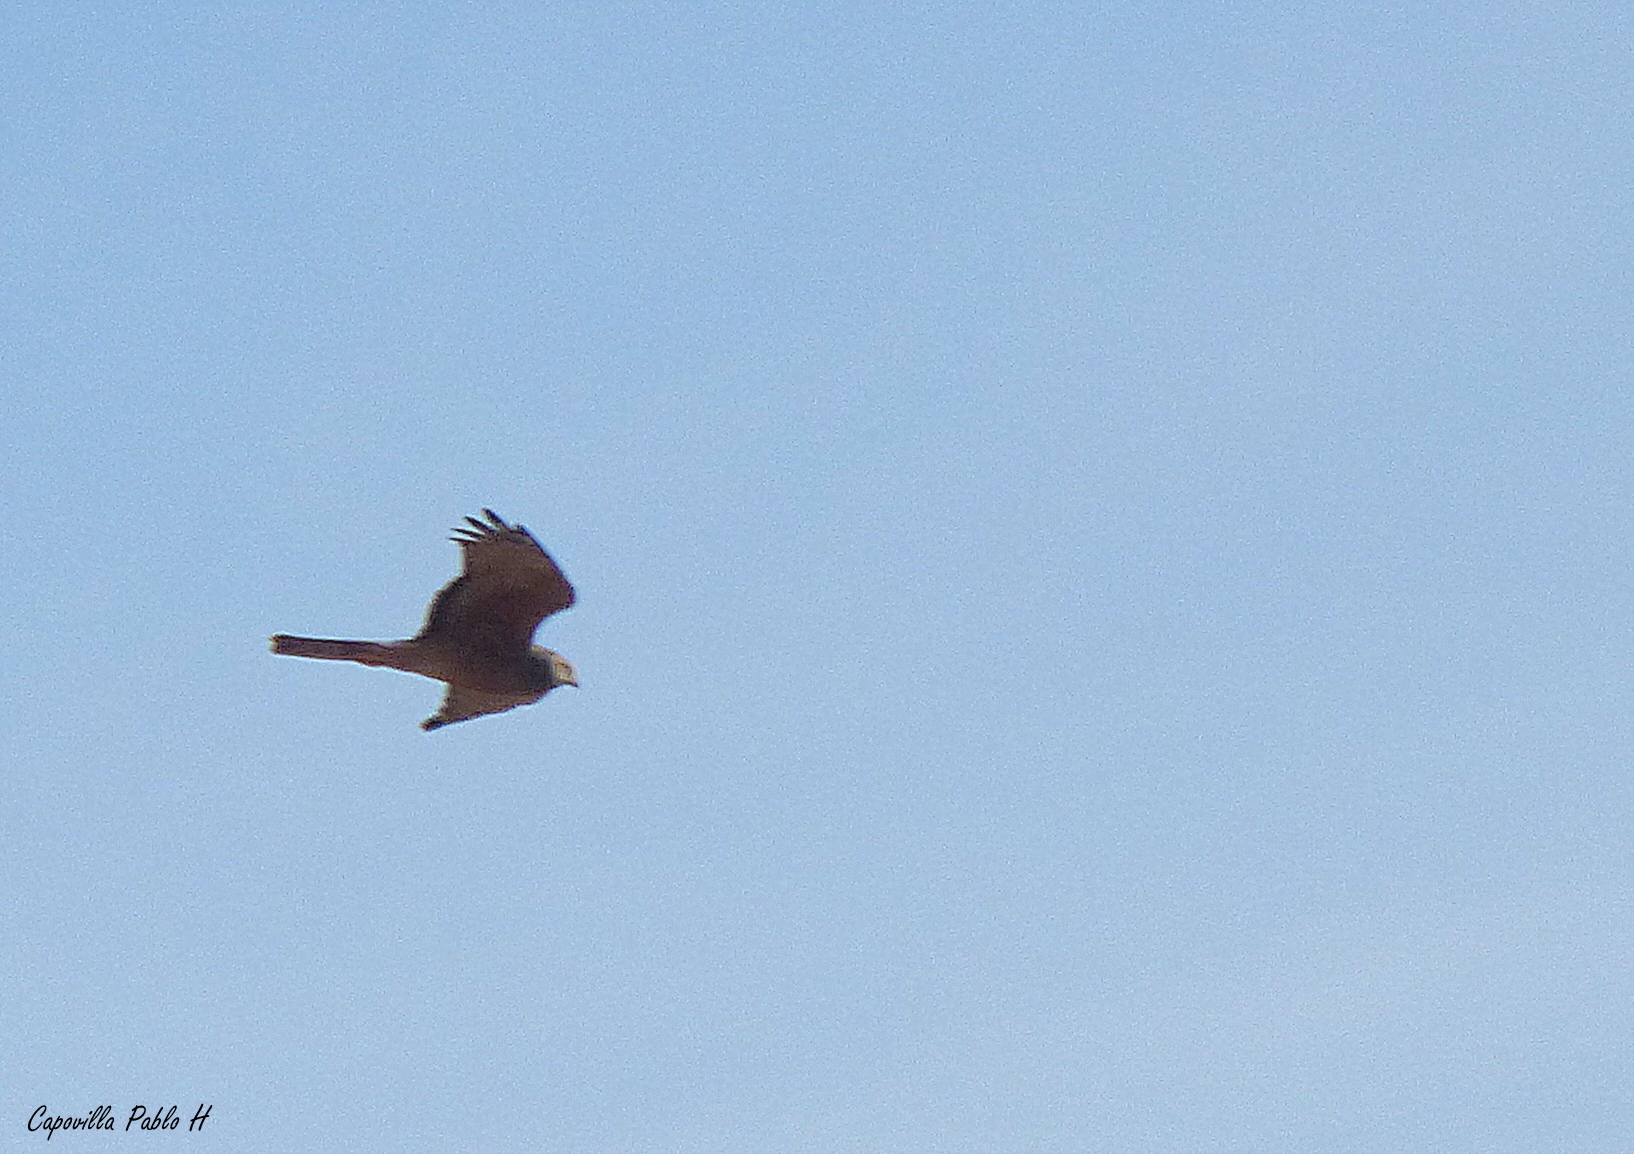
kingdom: Animalia
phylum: Chordata
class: Aves
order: Accipitriformes
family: Accipitridae
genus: Circus
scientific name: Circus cinereus
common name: Cinereous harrier
